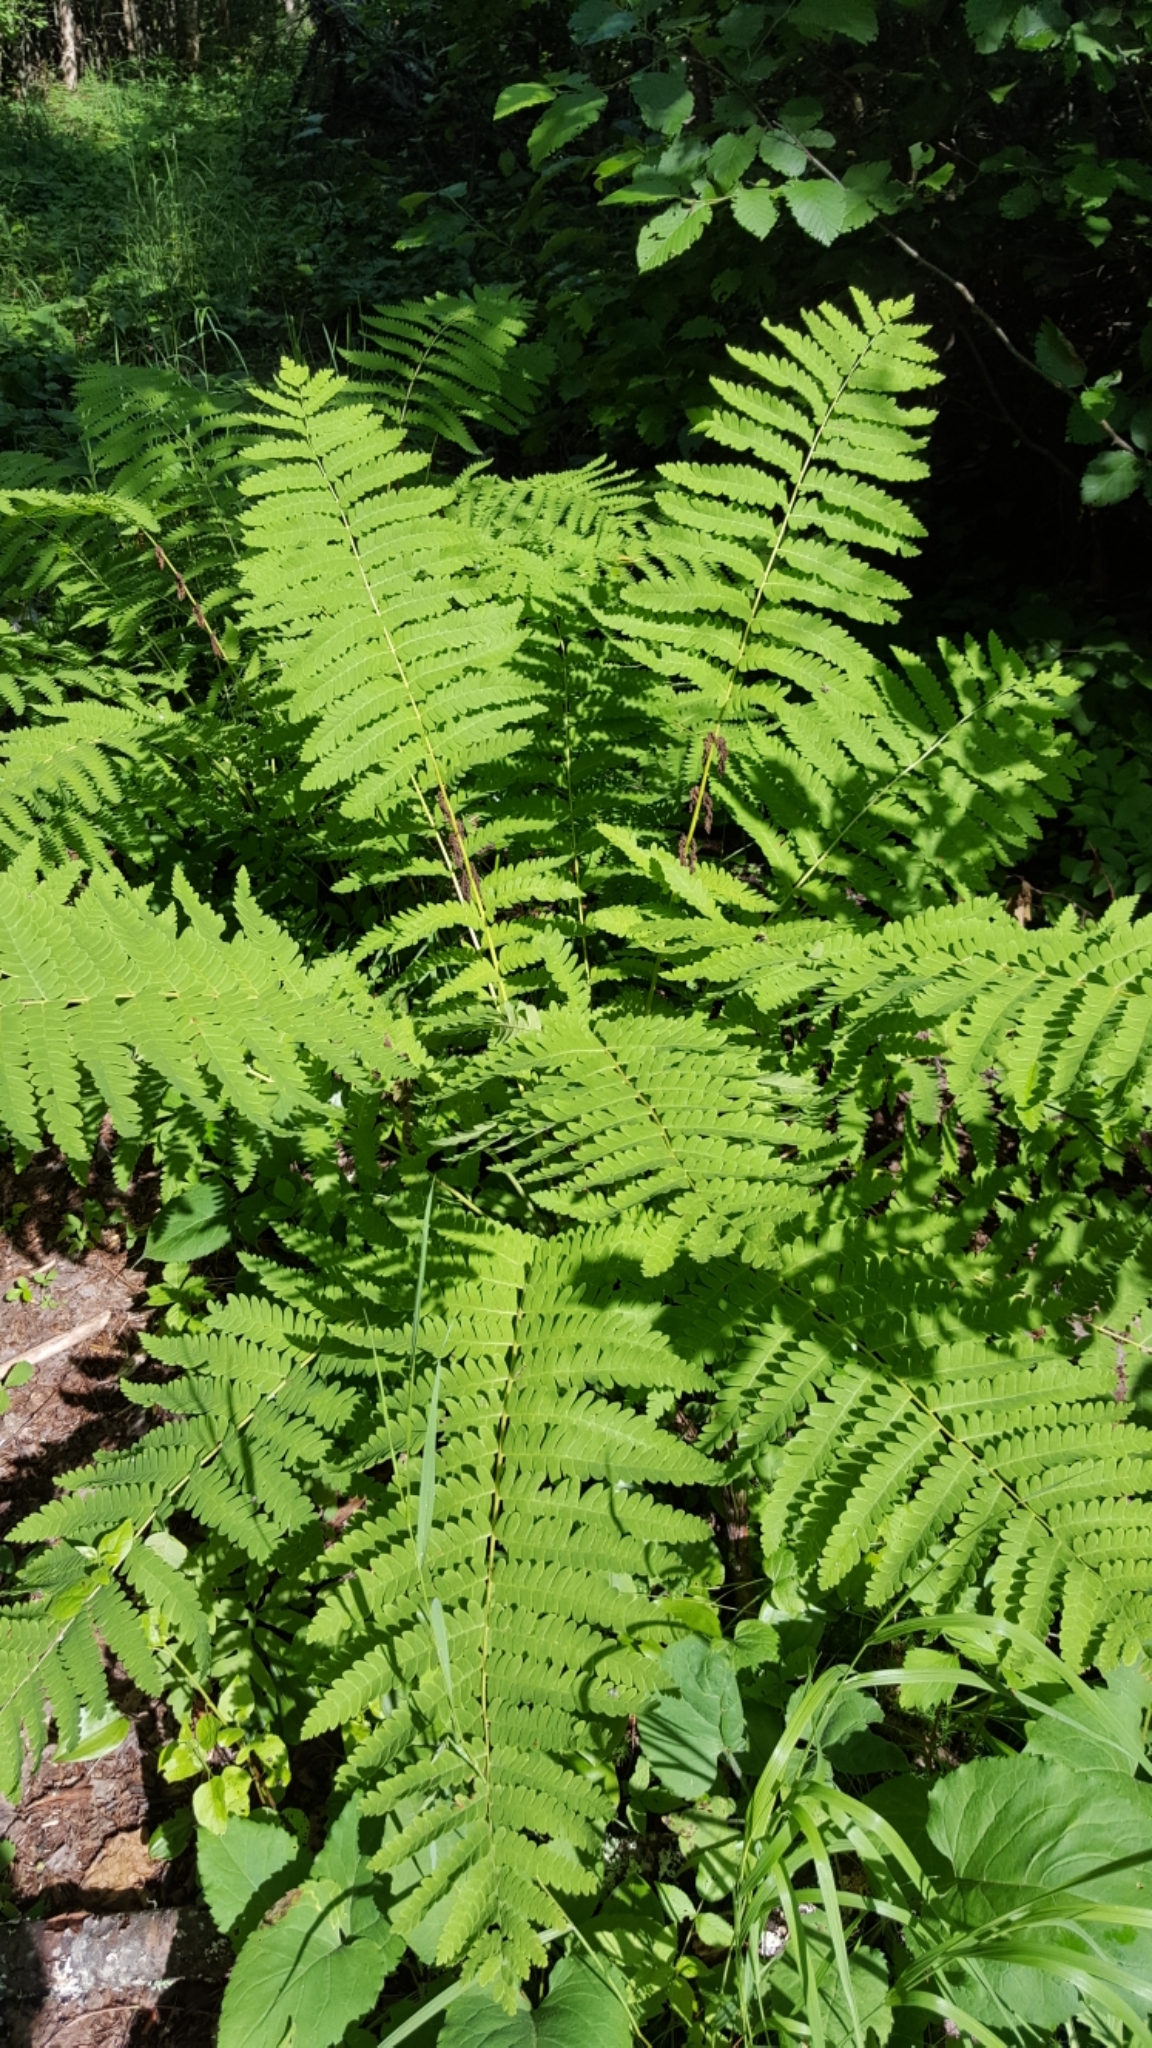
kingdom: Plantae
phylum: Tracheophyta
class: Polypodiopsida
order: Osmundales
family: Osmundaceae
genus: Claytosmunda
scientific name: Claytosmunda claytoniana
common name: Clayton's fern
